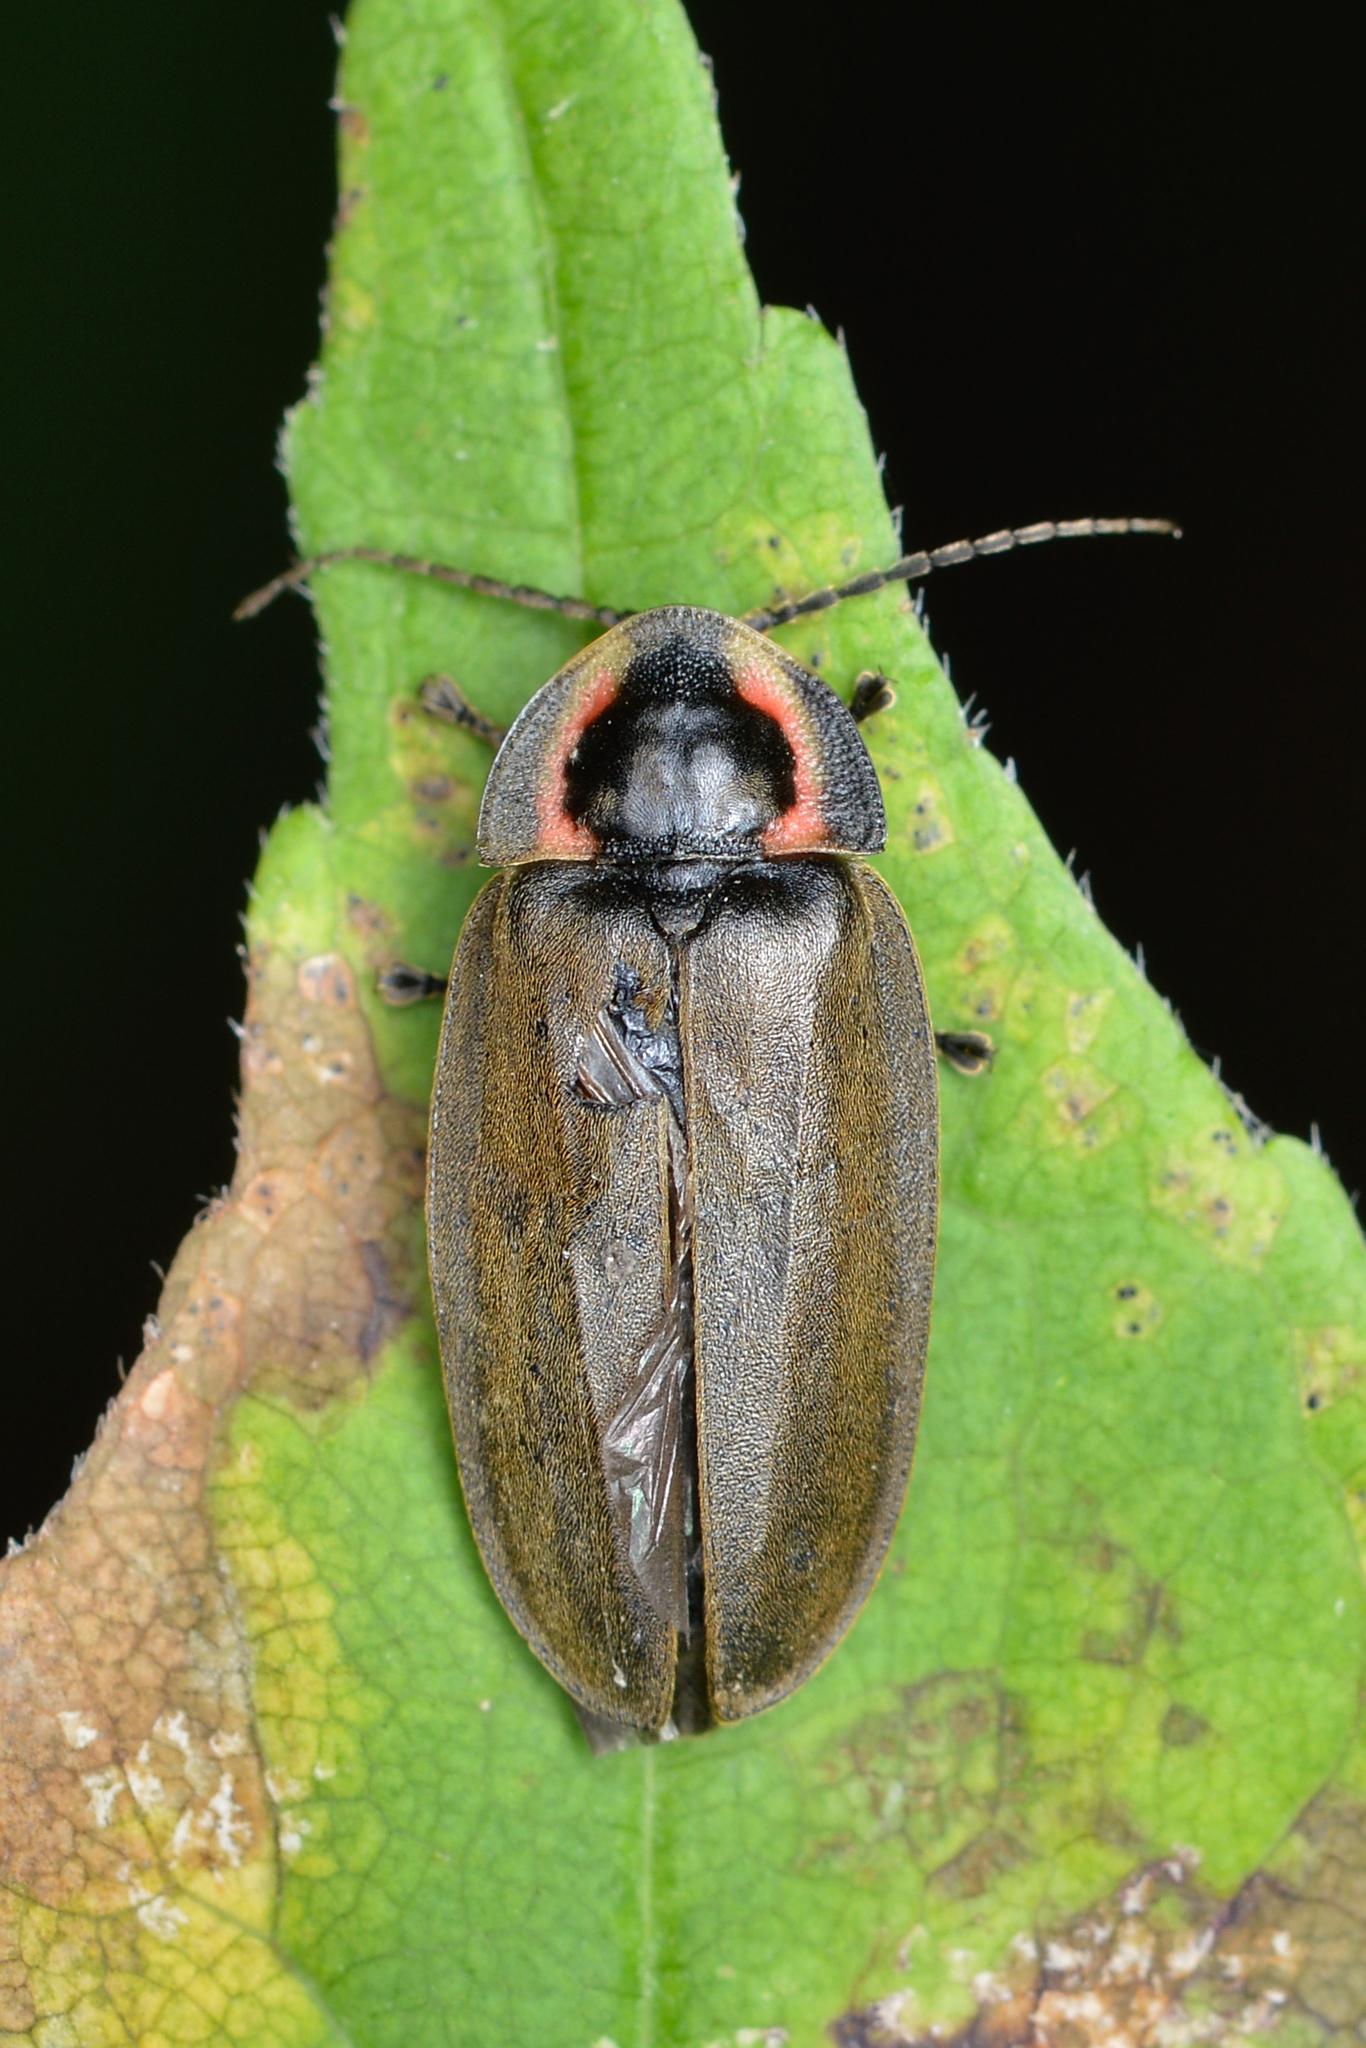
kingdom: Animalia
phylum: Arthropoda
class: Insecta
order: Coleoptera
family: Lampyridae
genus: Photinus
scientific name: Photinus corrusca
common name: Winter firefly
